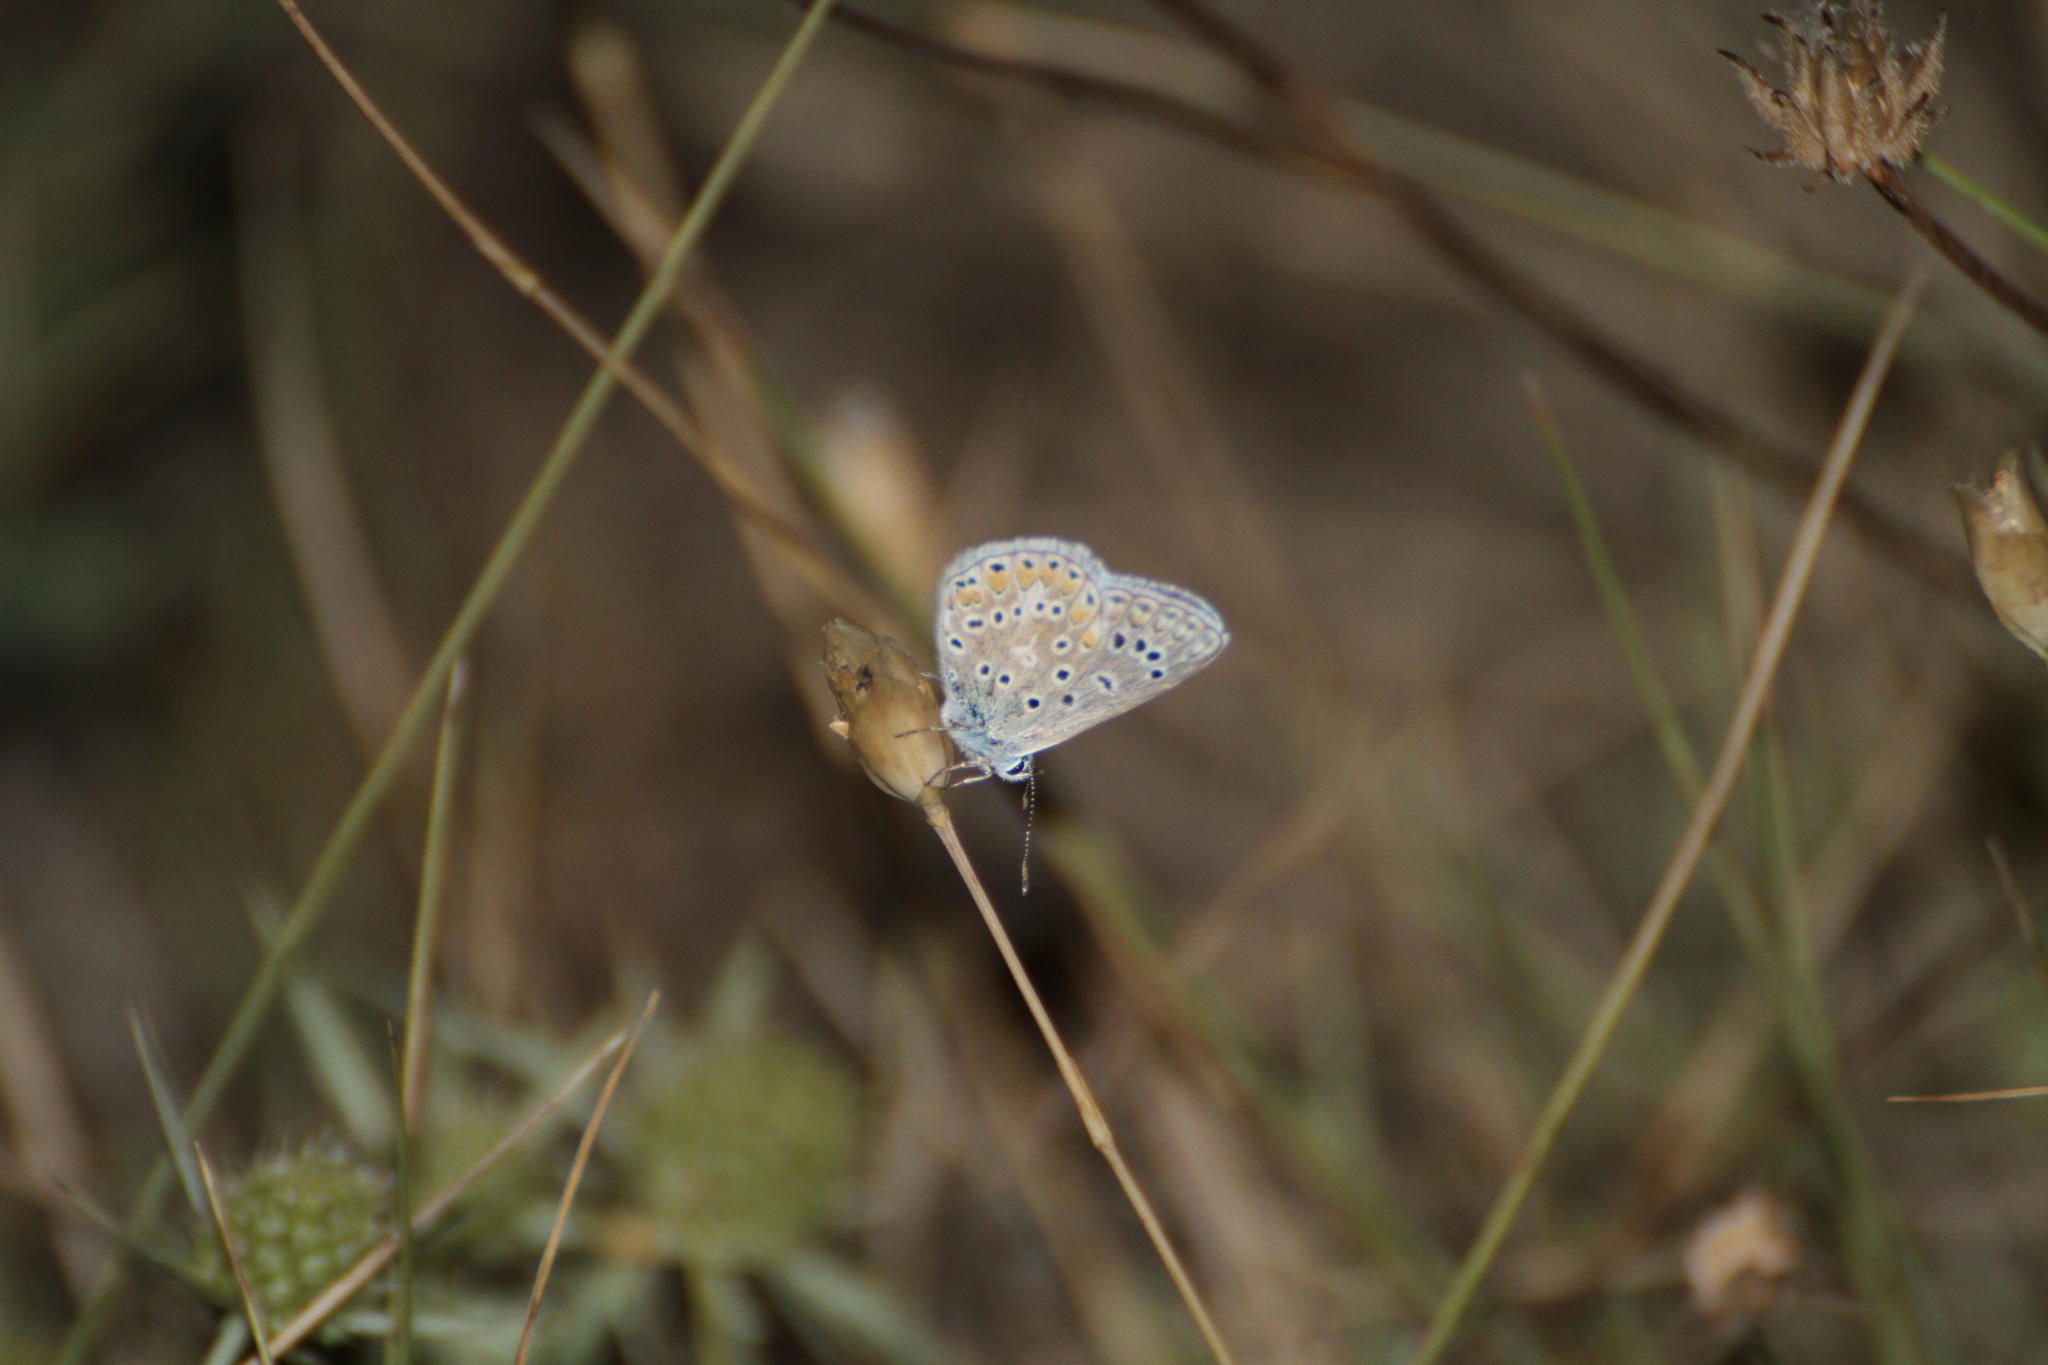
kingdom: Animalia
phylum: Arthropoda
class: Insecta
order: Lepidoptera
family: Lycaenidae
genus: Polyommatus
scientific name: Polyommatus icarus
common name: Common blue
